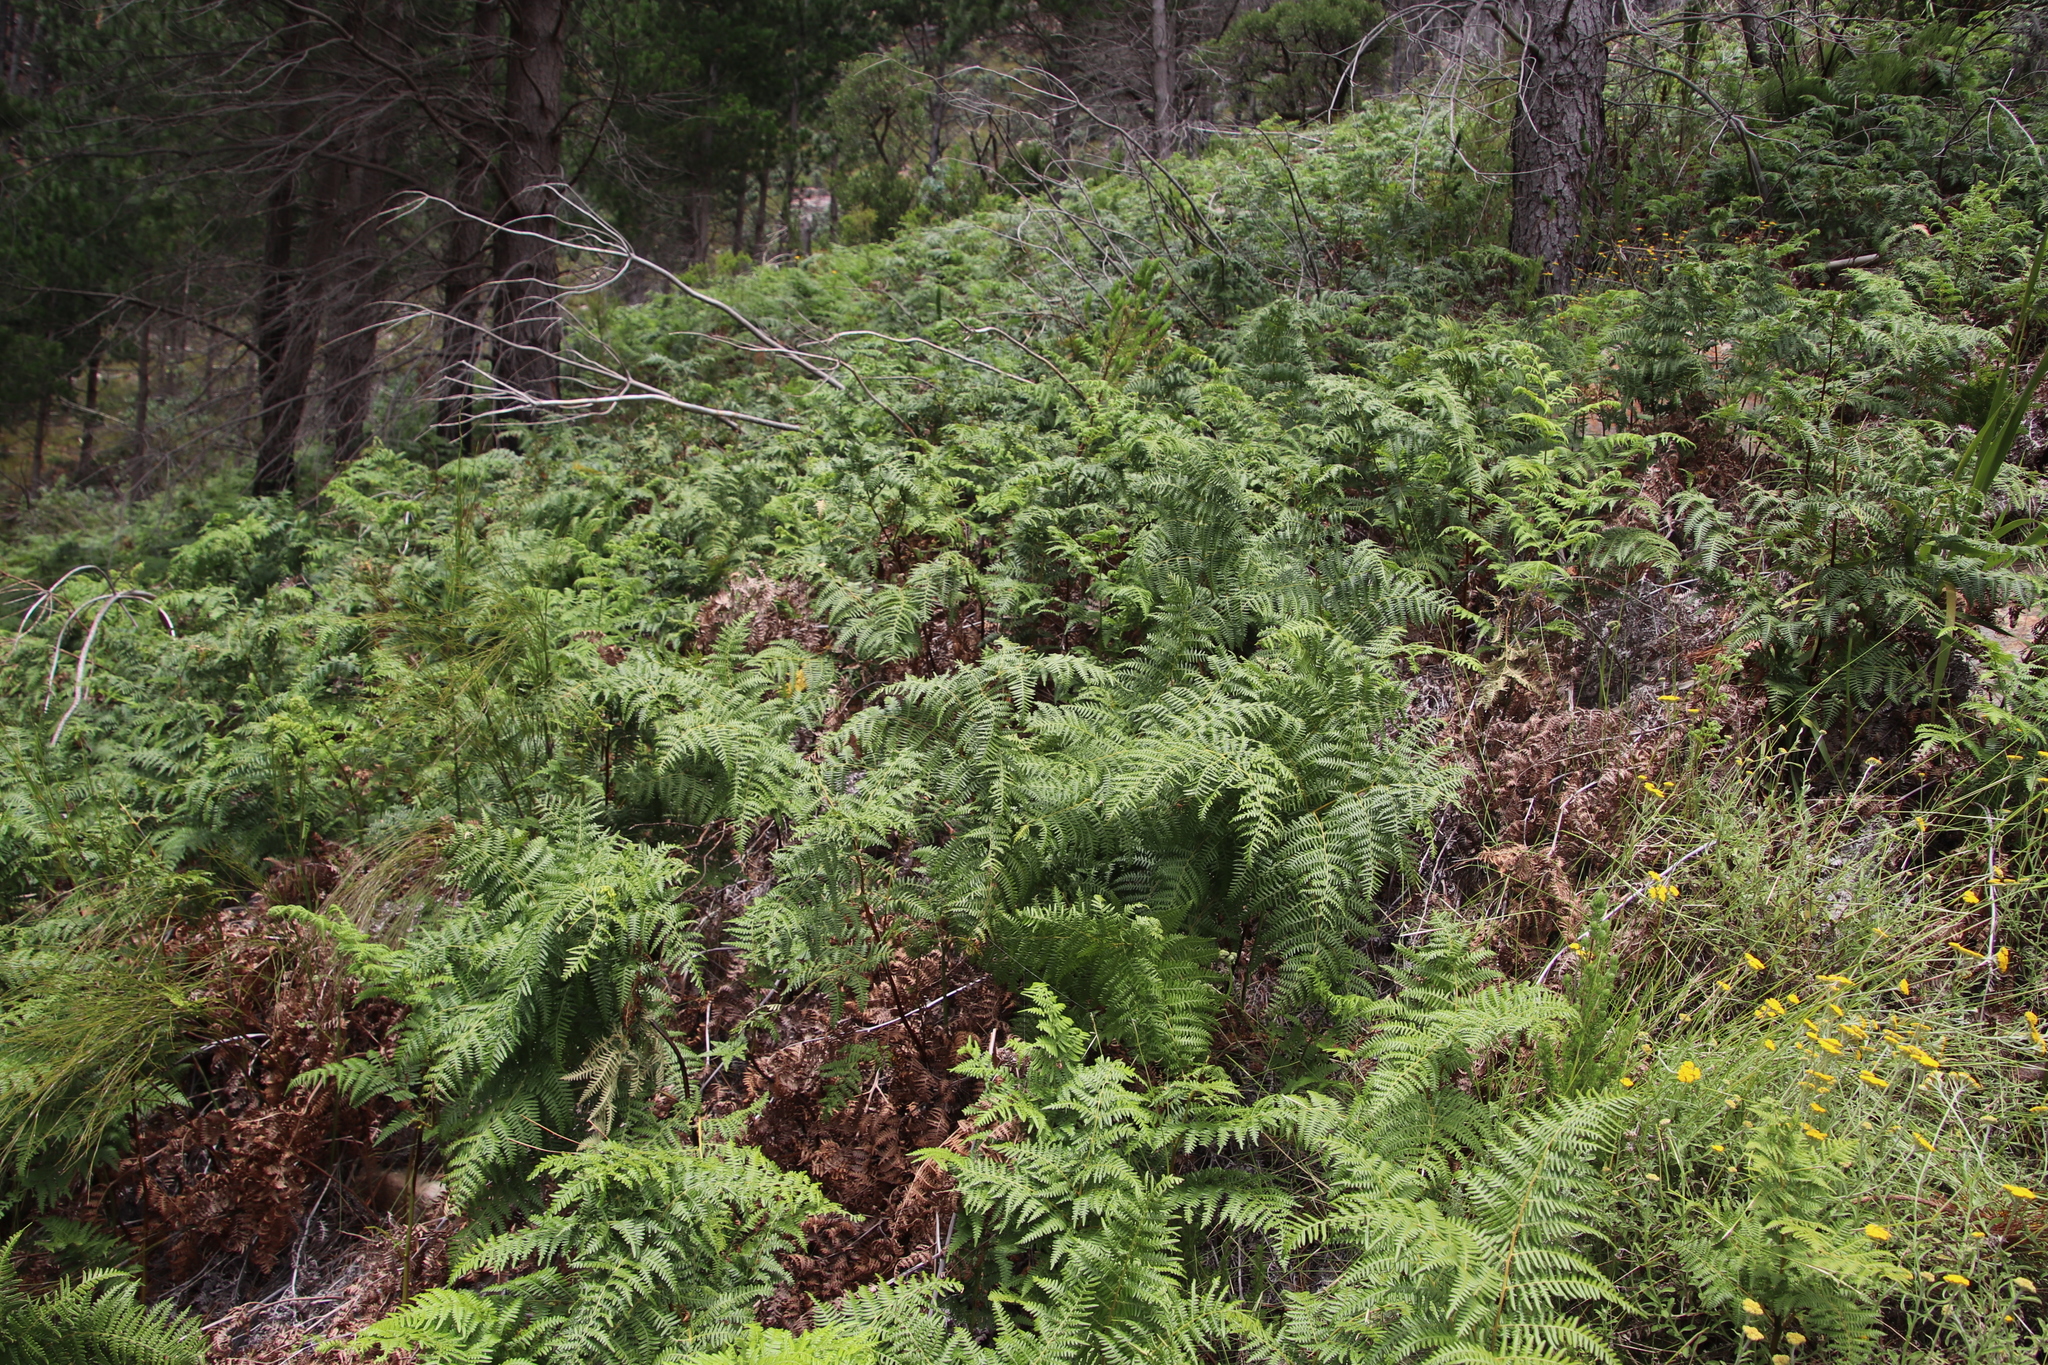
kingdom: Plantae
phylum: Tracheophyta
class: Polypodiopsida
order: Polypodiales
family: Dennstaedtiaceae
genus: Pteridium
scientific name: Pteridium aquilinum
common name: Bracken
